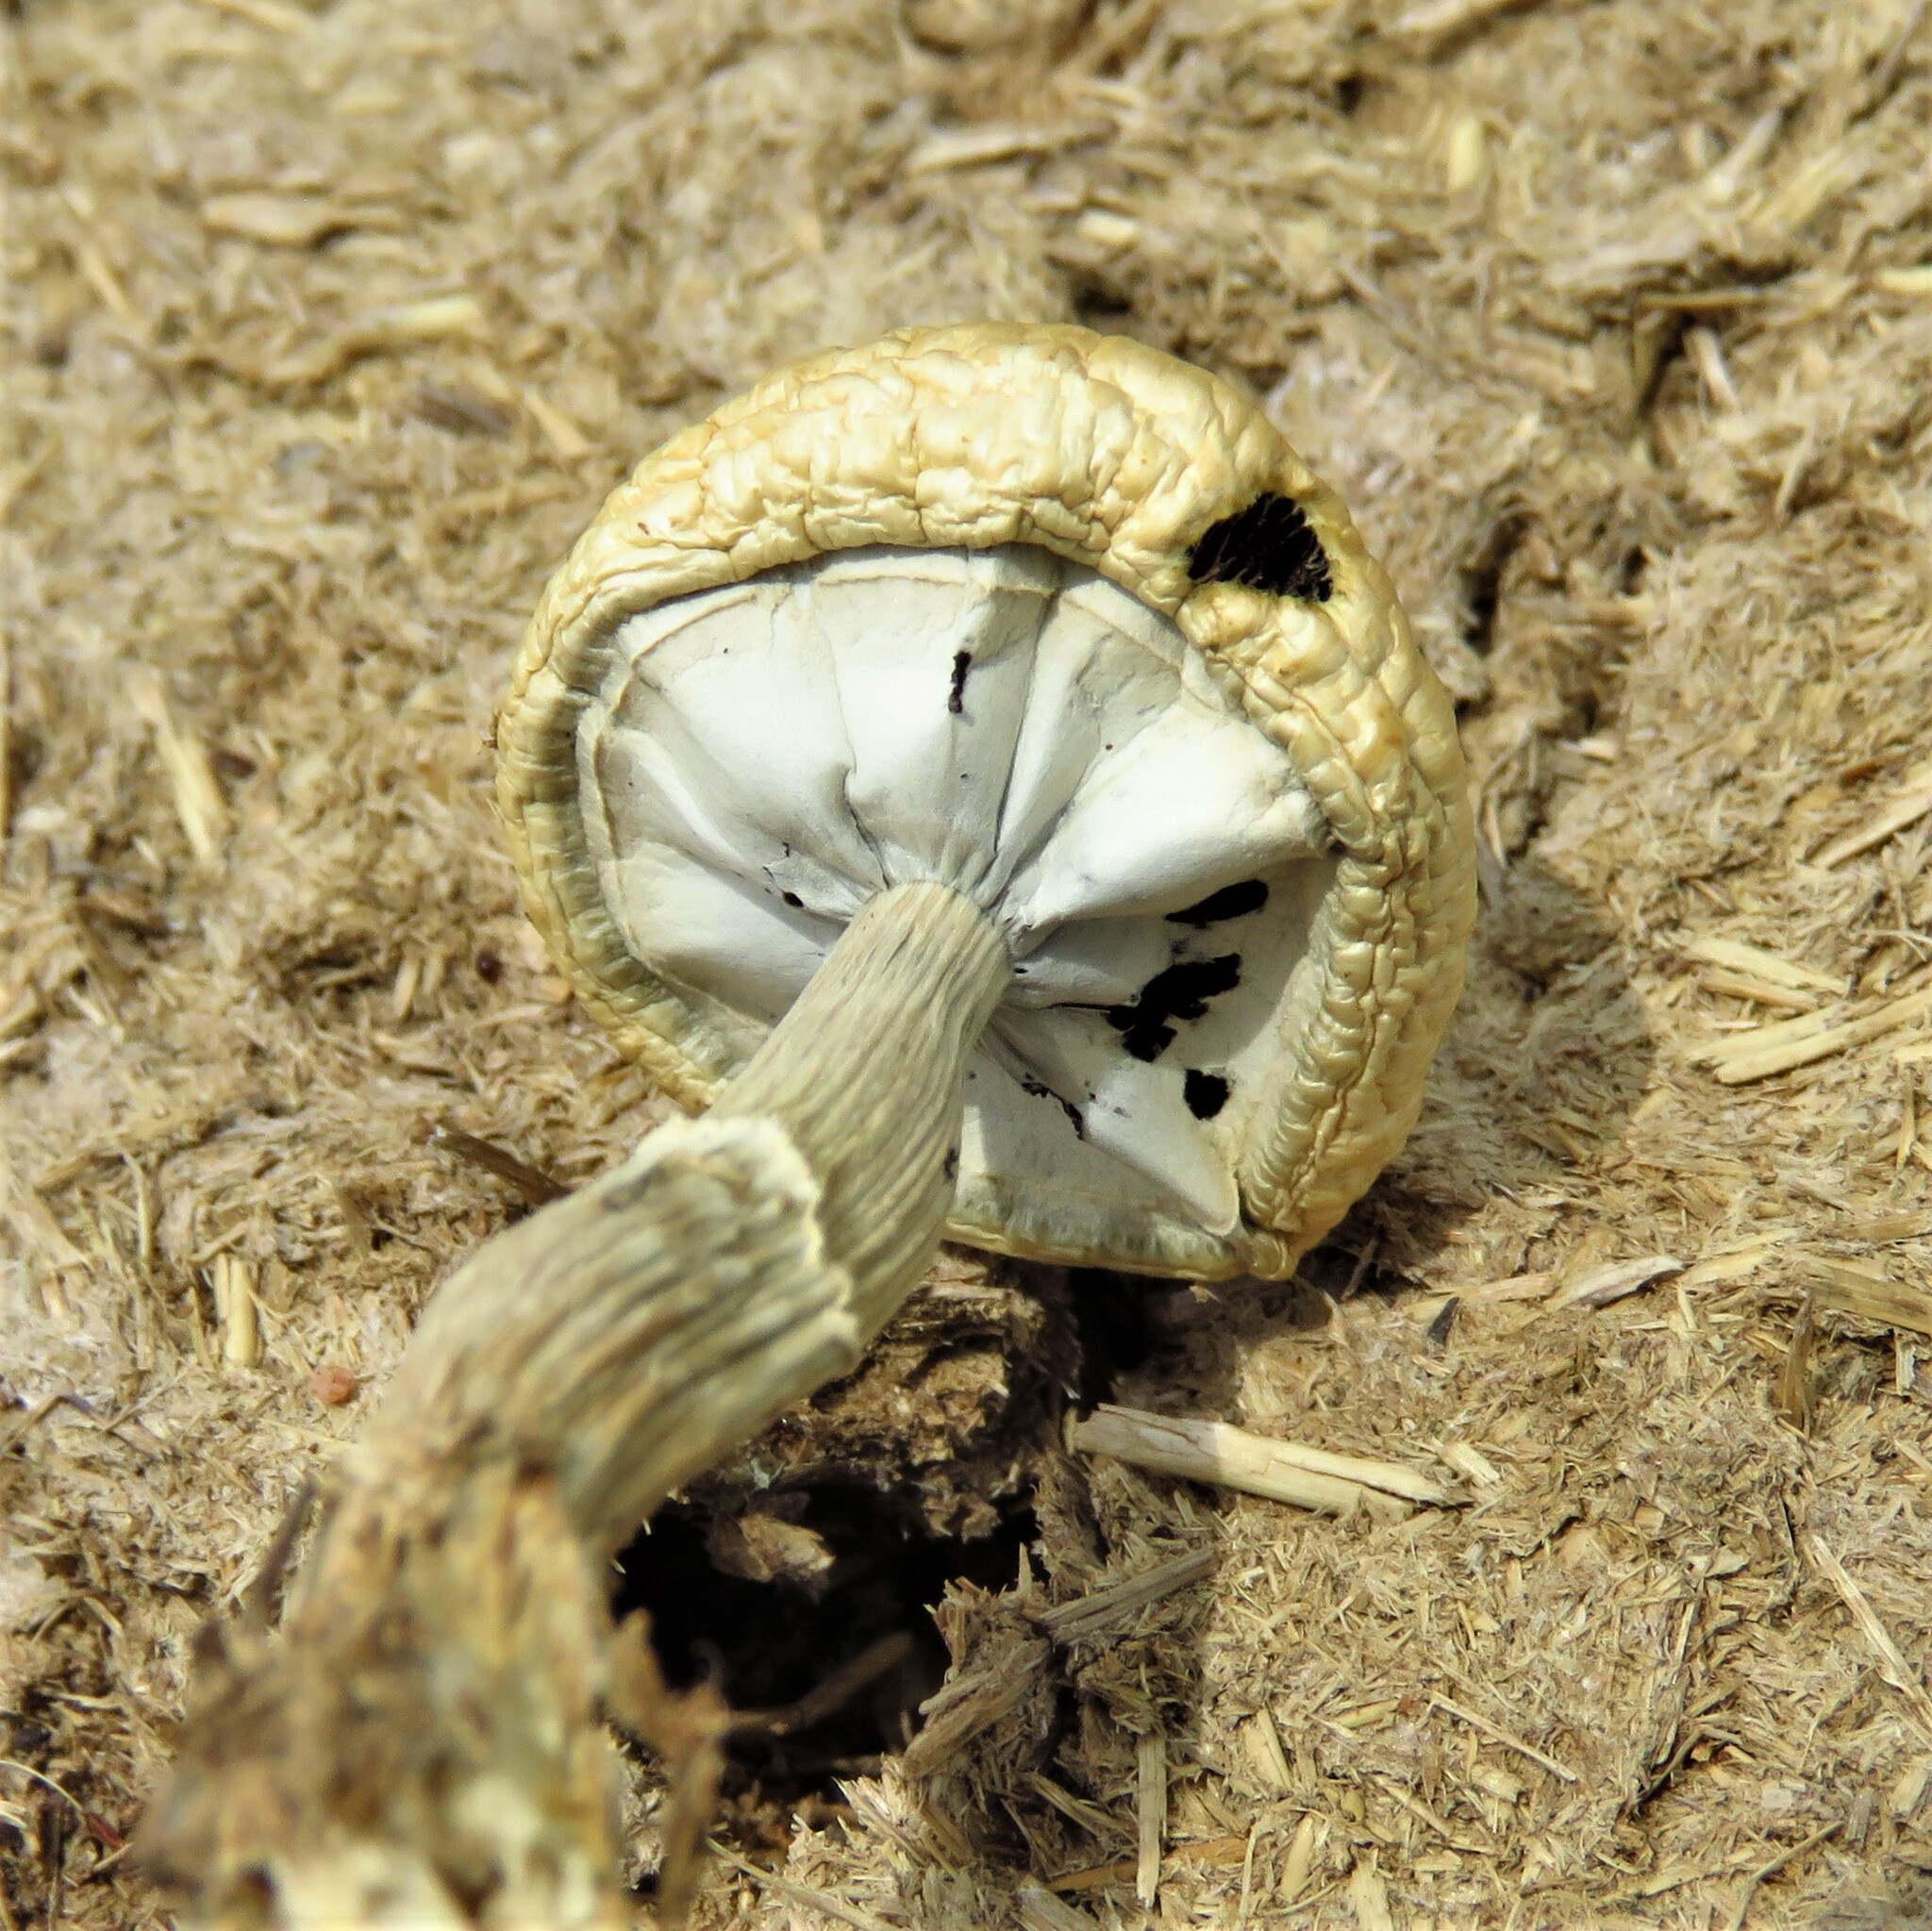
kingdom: Fungi
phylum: Basidiomycota
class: Agaricomycetes
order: Agaricales
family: Hymenogastraceae
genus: Psilocybe
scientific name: Psilocybe cubensis
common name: Golden brownie
